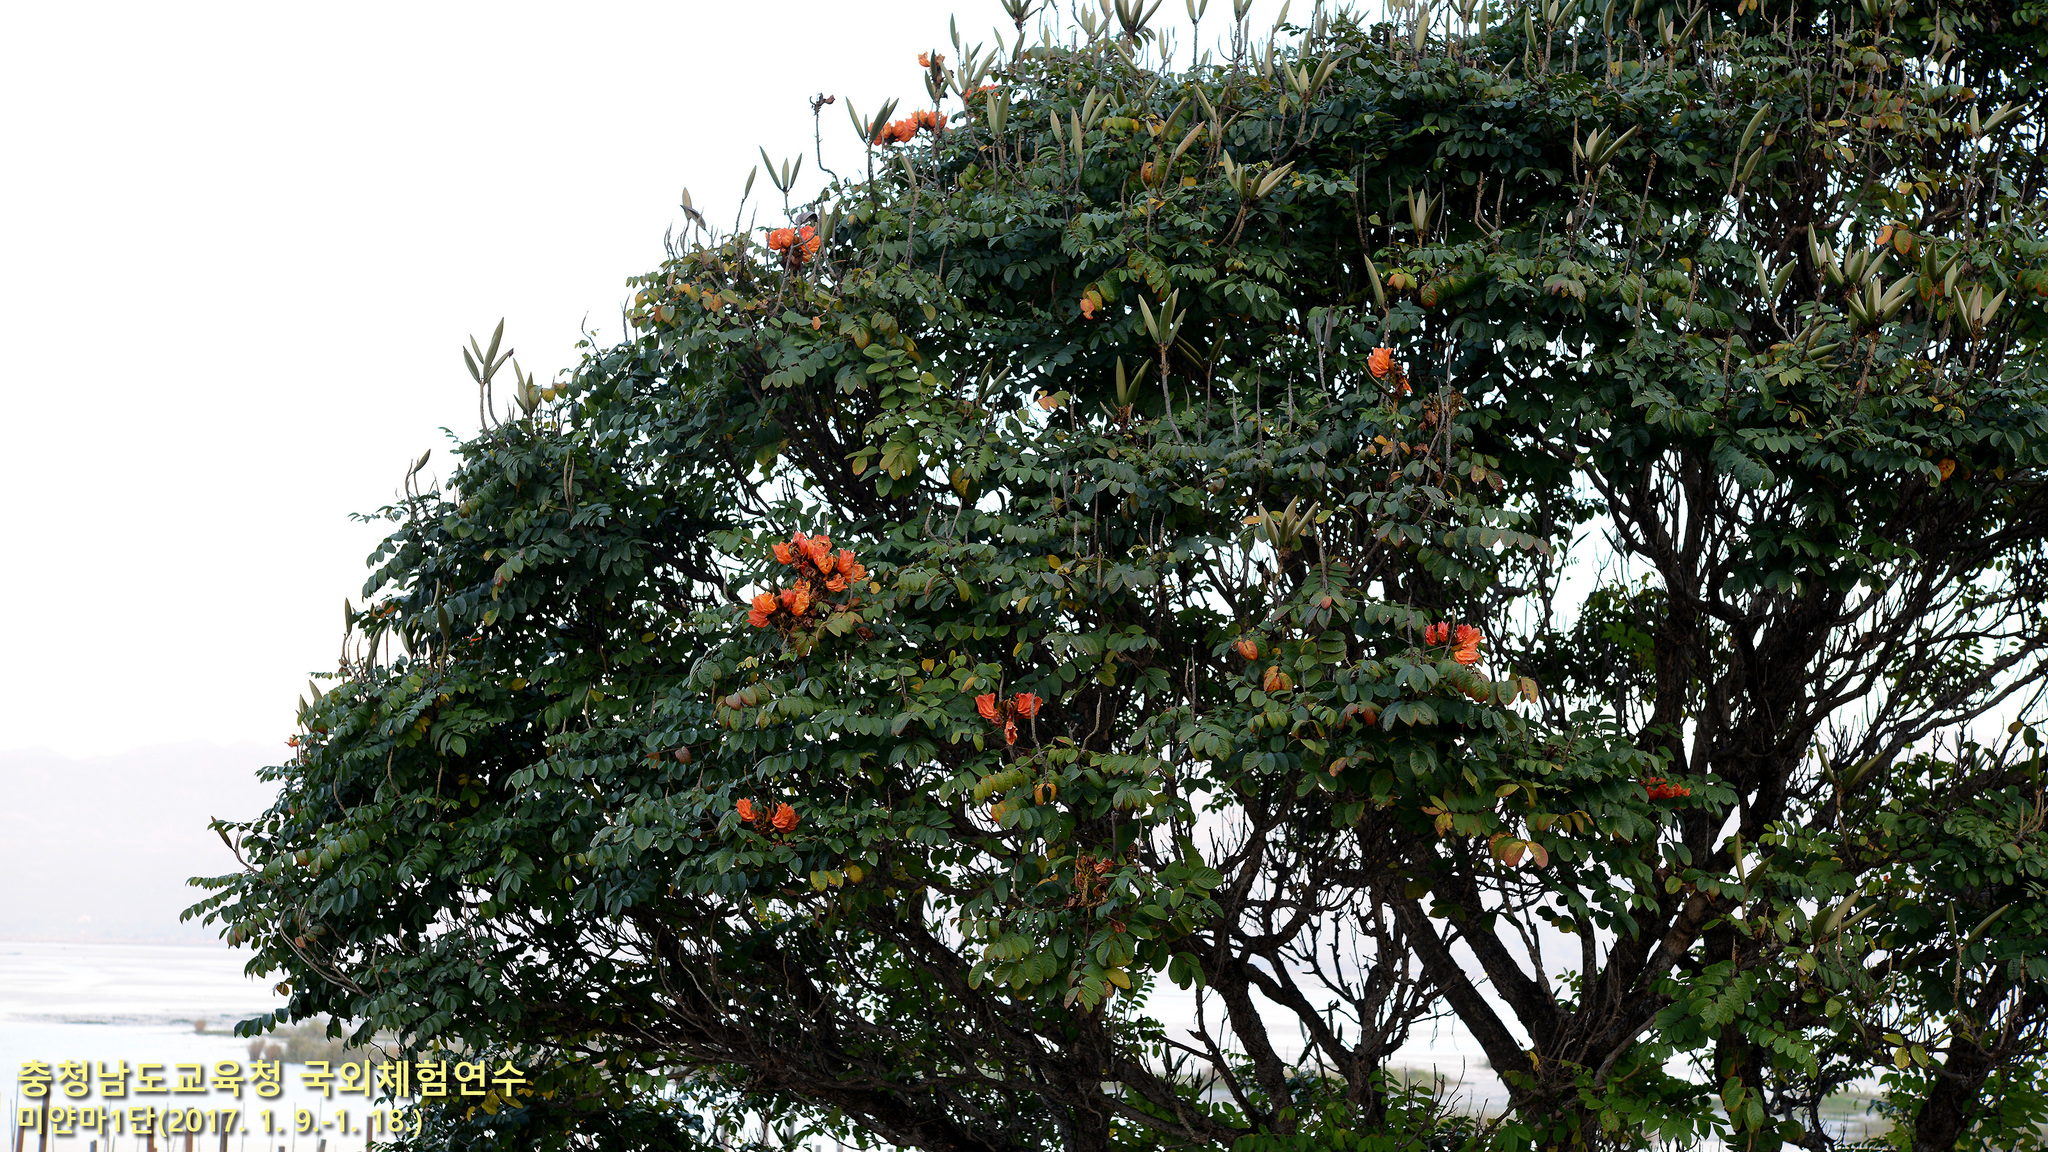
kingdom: Plantae
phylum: Tracheophyta
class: Magnoliopsida
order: Lamiales
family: Bignoniaceae
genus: Spathodea
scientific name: Spathodea campanulata
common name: African tuliptree
